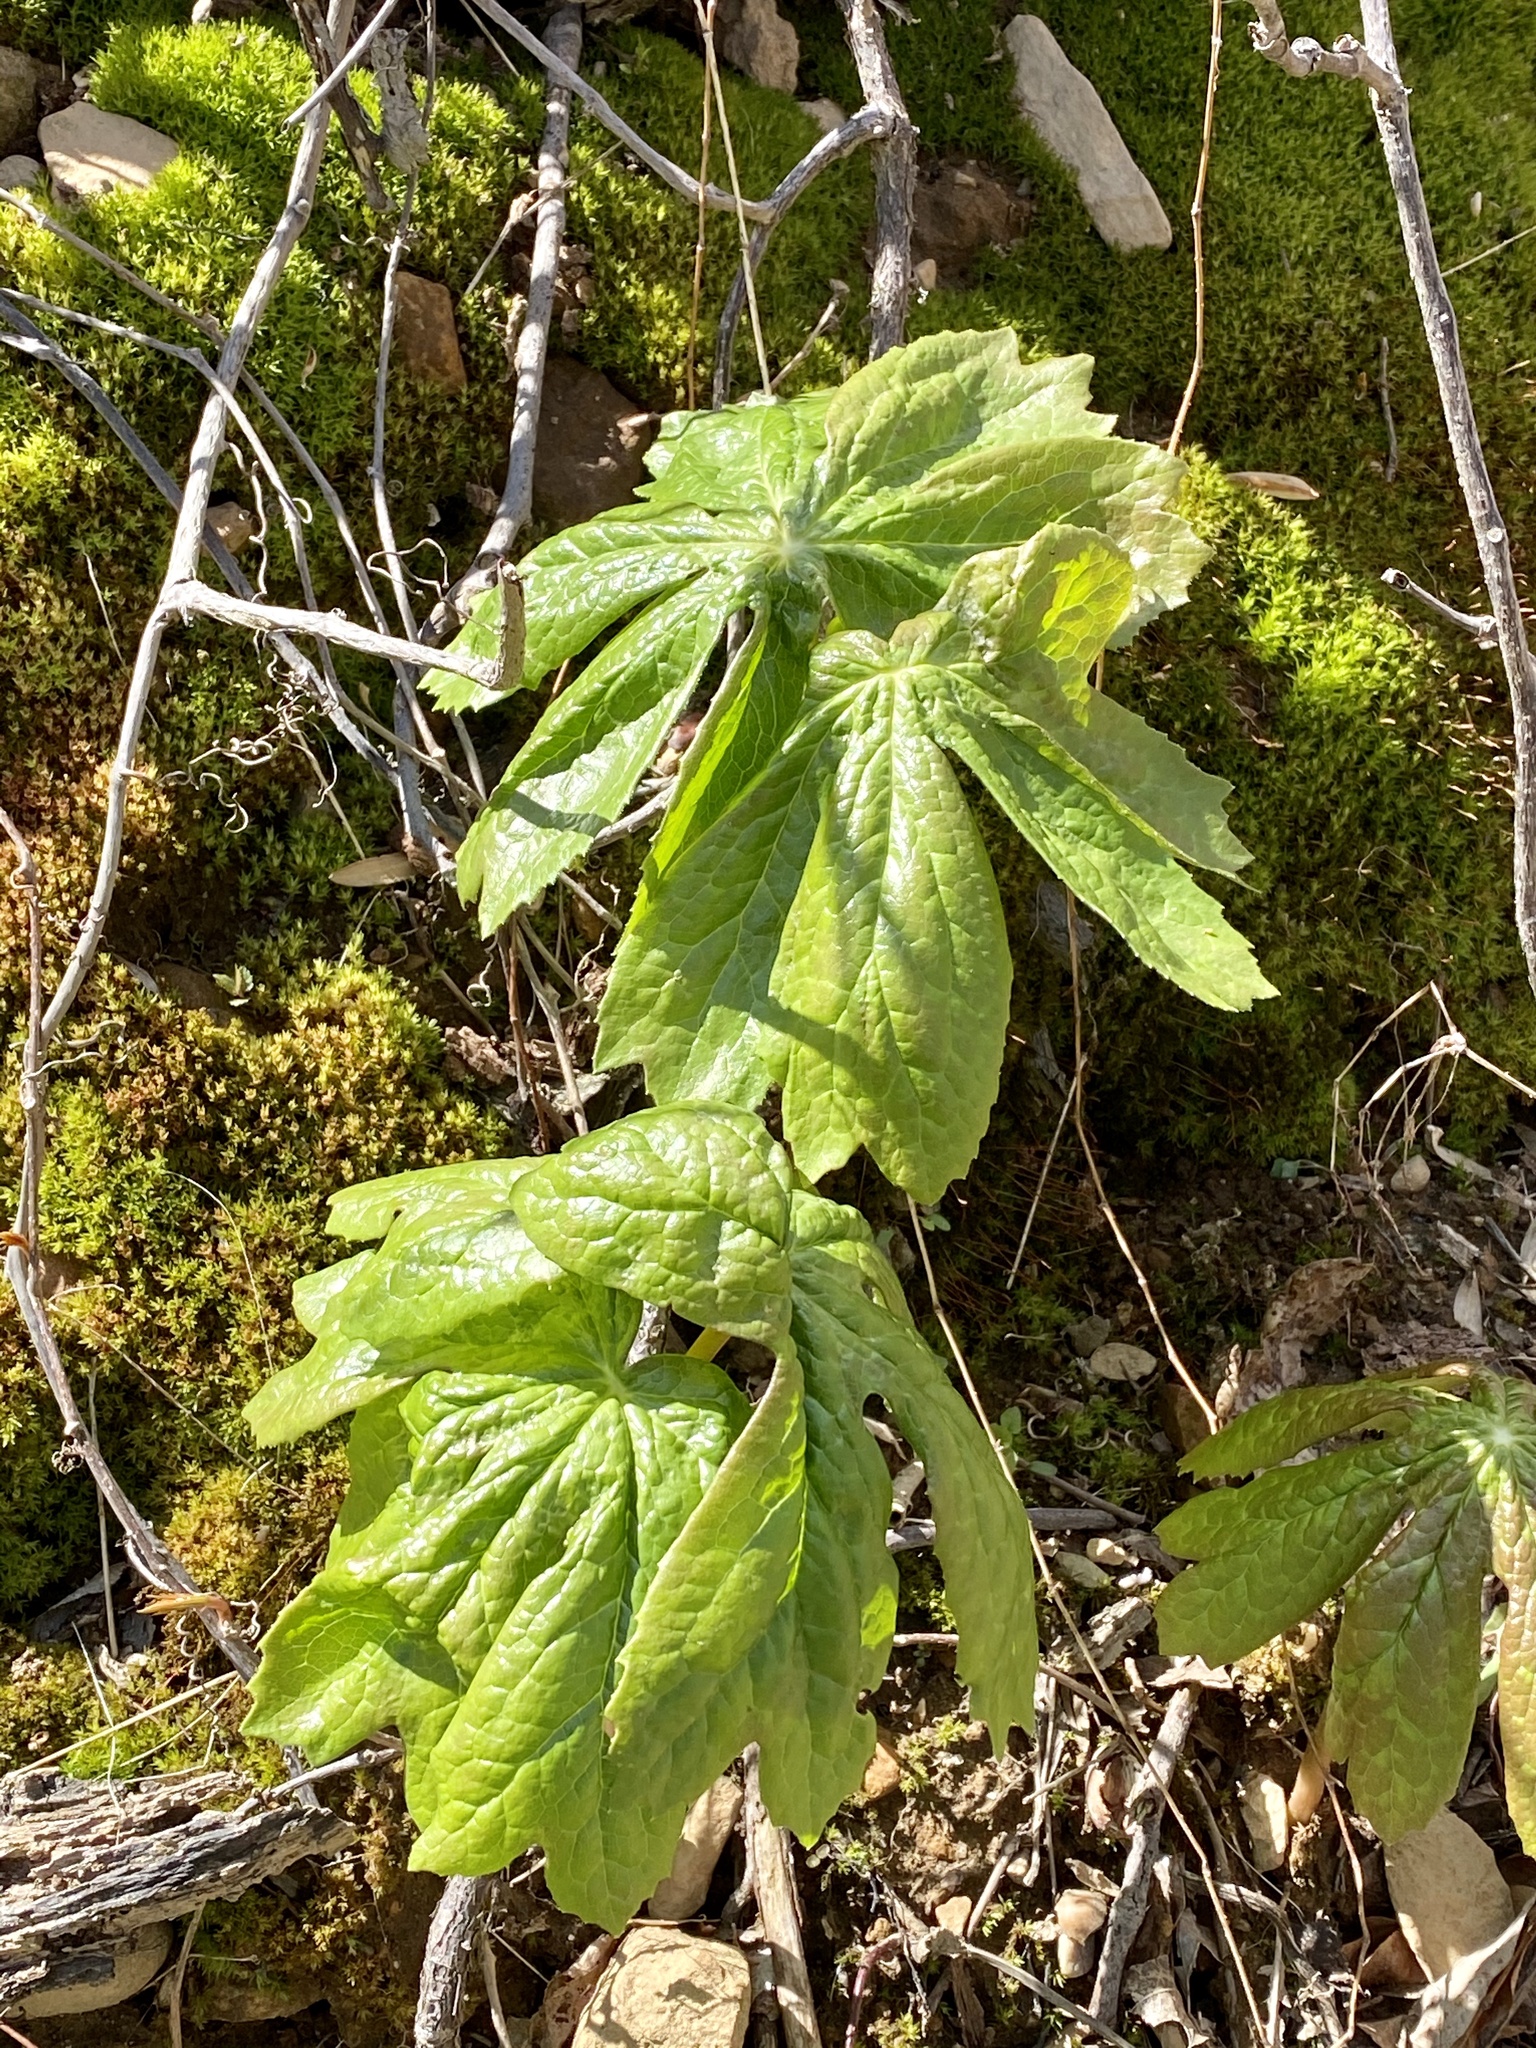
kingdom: Plantae
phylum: Tracheophyta
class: Magnoliopsida
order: Ranunculales
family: Berberidaceae
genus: Podophyllum
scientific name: Podophyllum peltatum
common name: Wild mandrake
